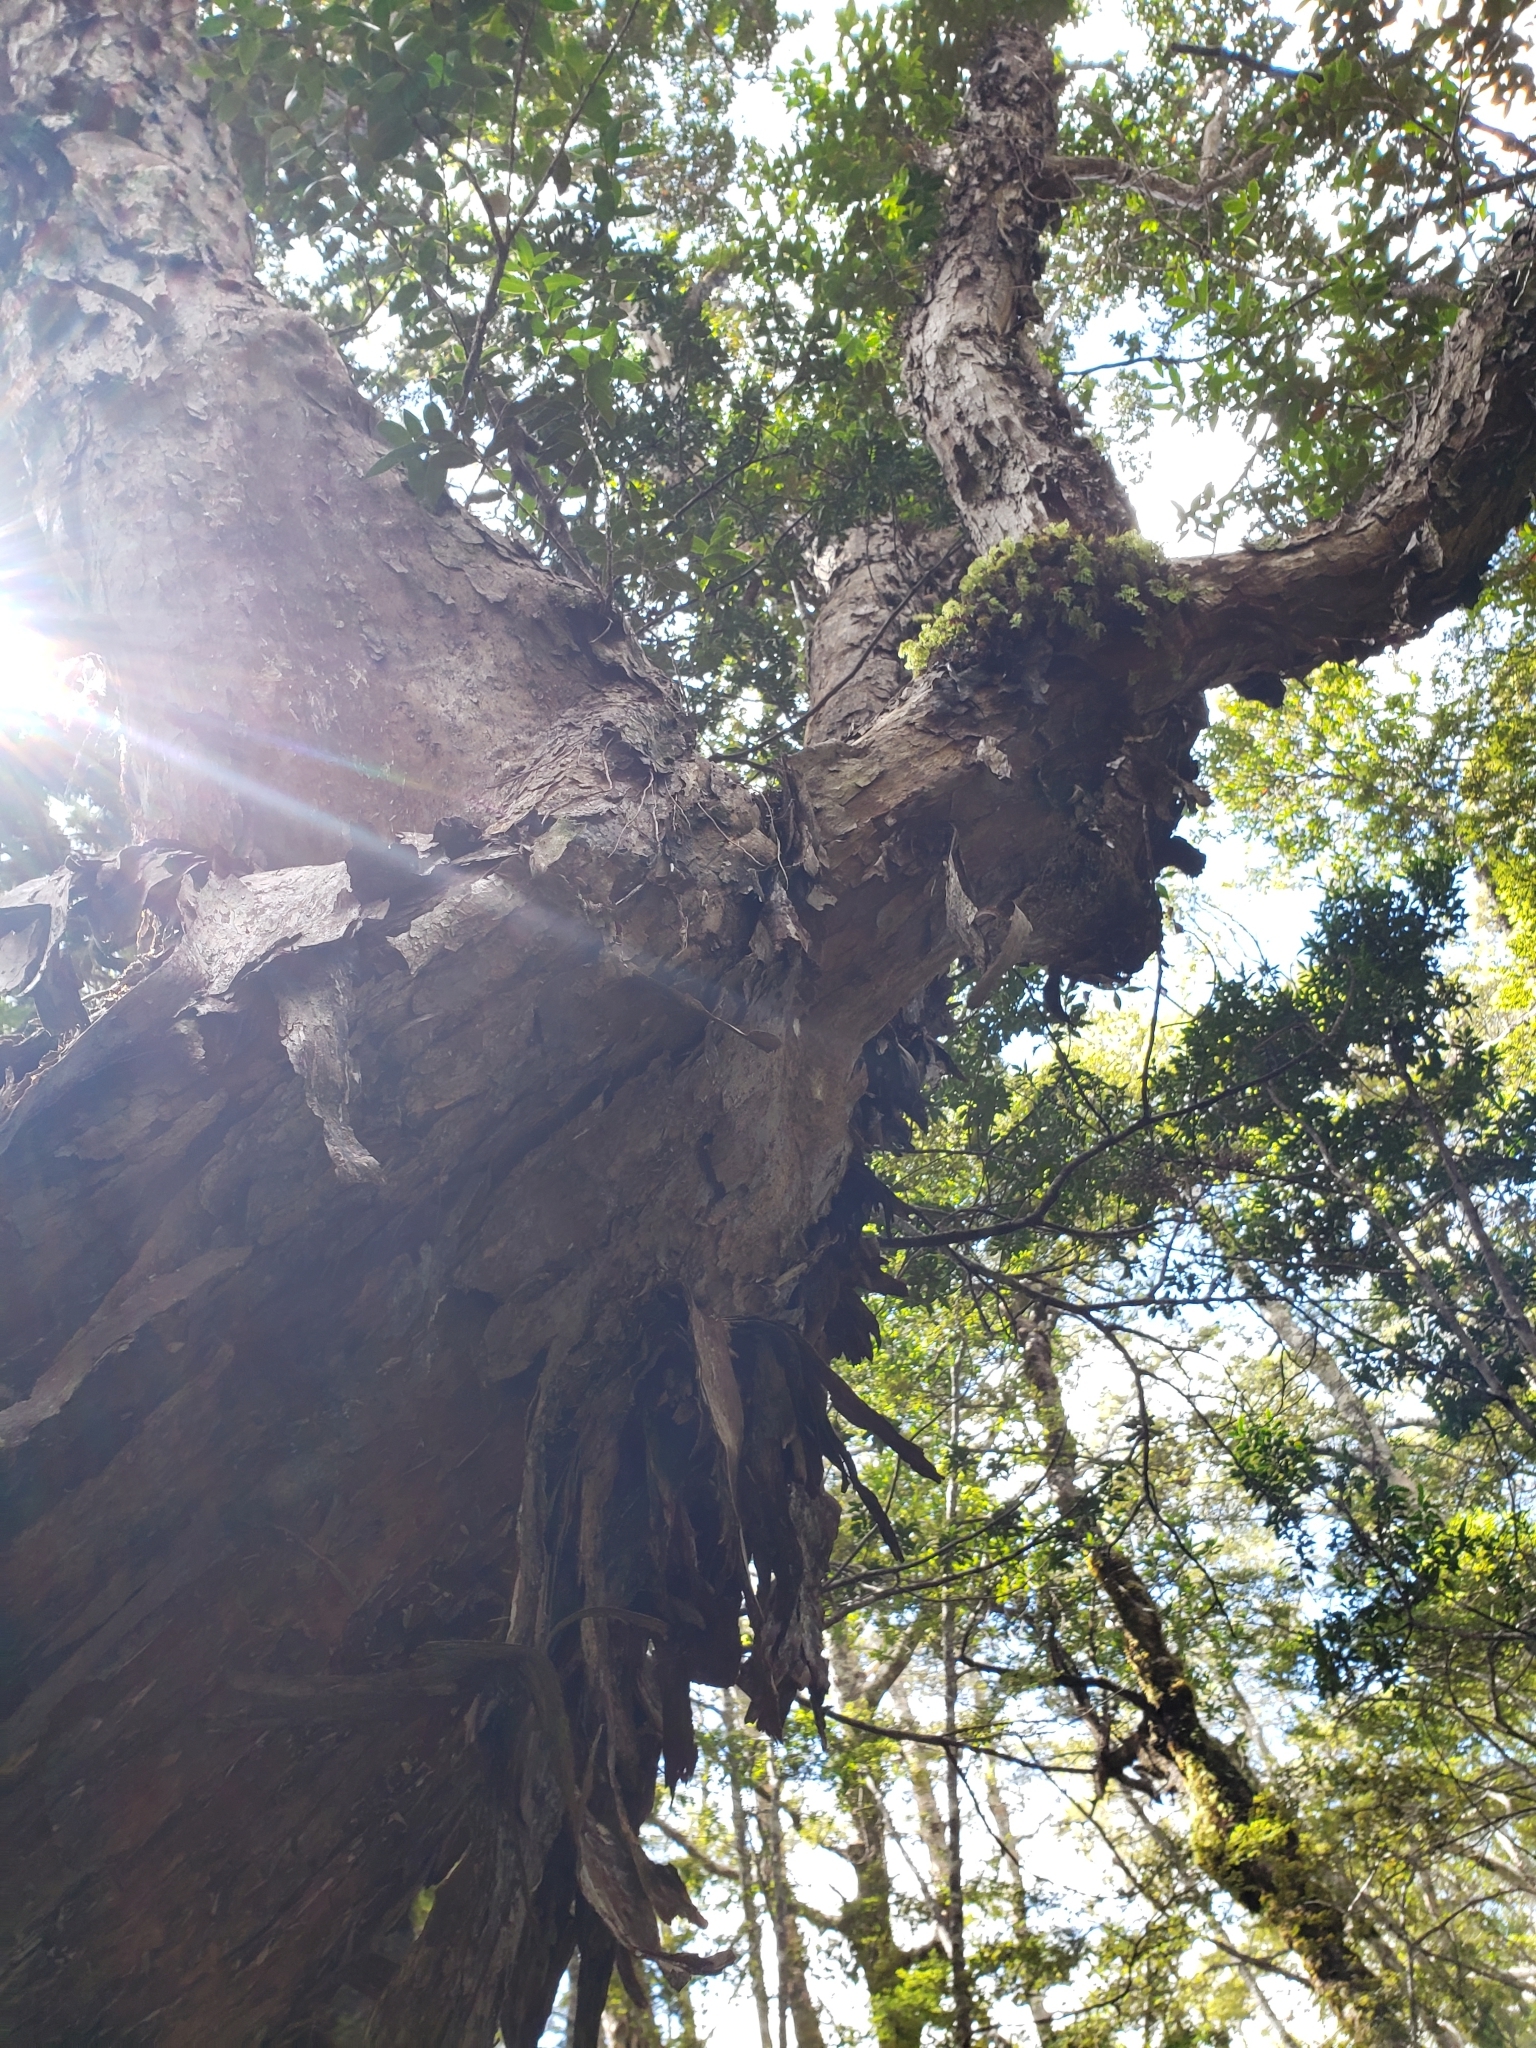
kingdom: Plantae
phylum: Tracheophyta
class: Pinopsida
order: Pinales
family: Podocarpaceae
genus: Dacrydium
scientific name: Dacrydium cupressinum
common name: Red pine
